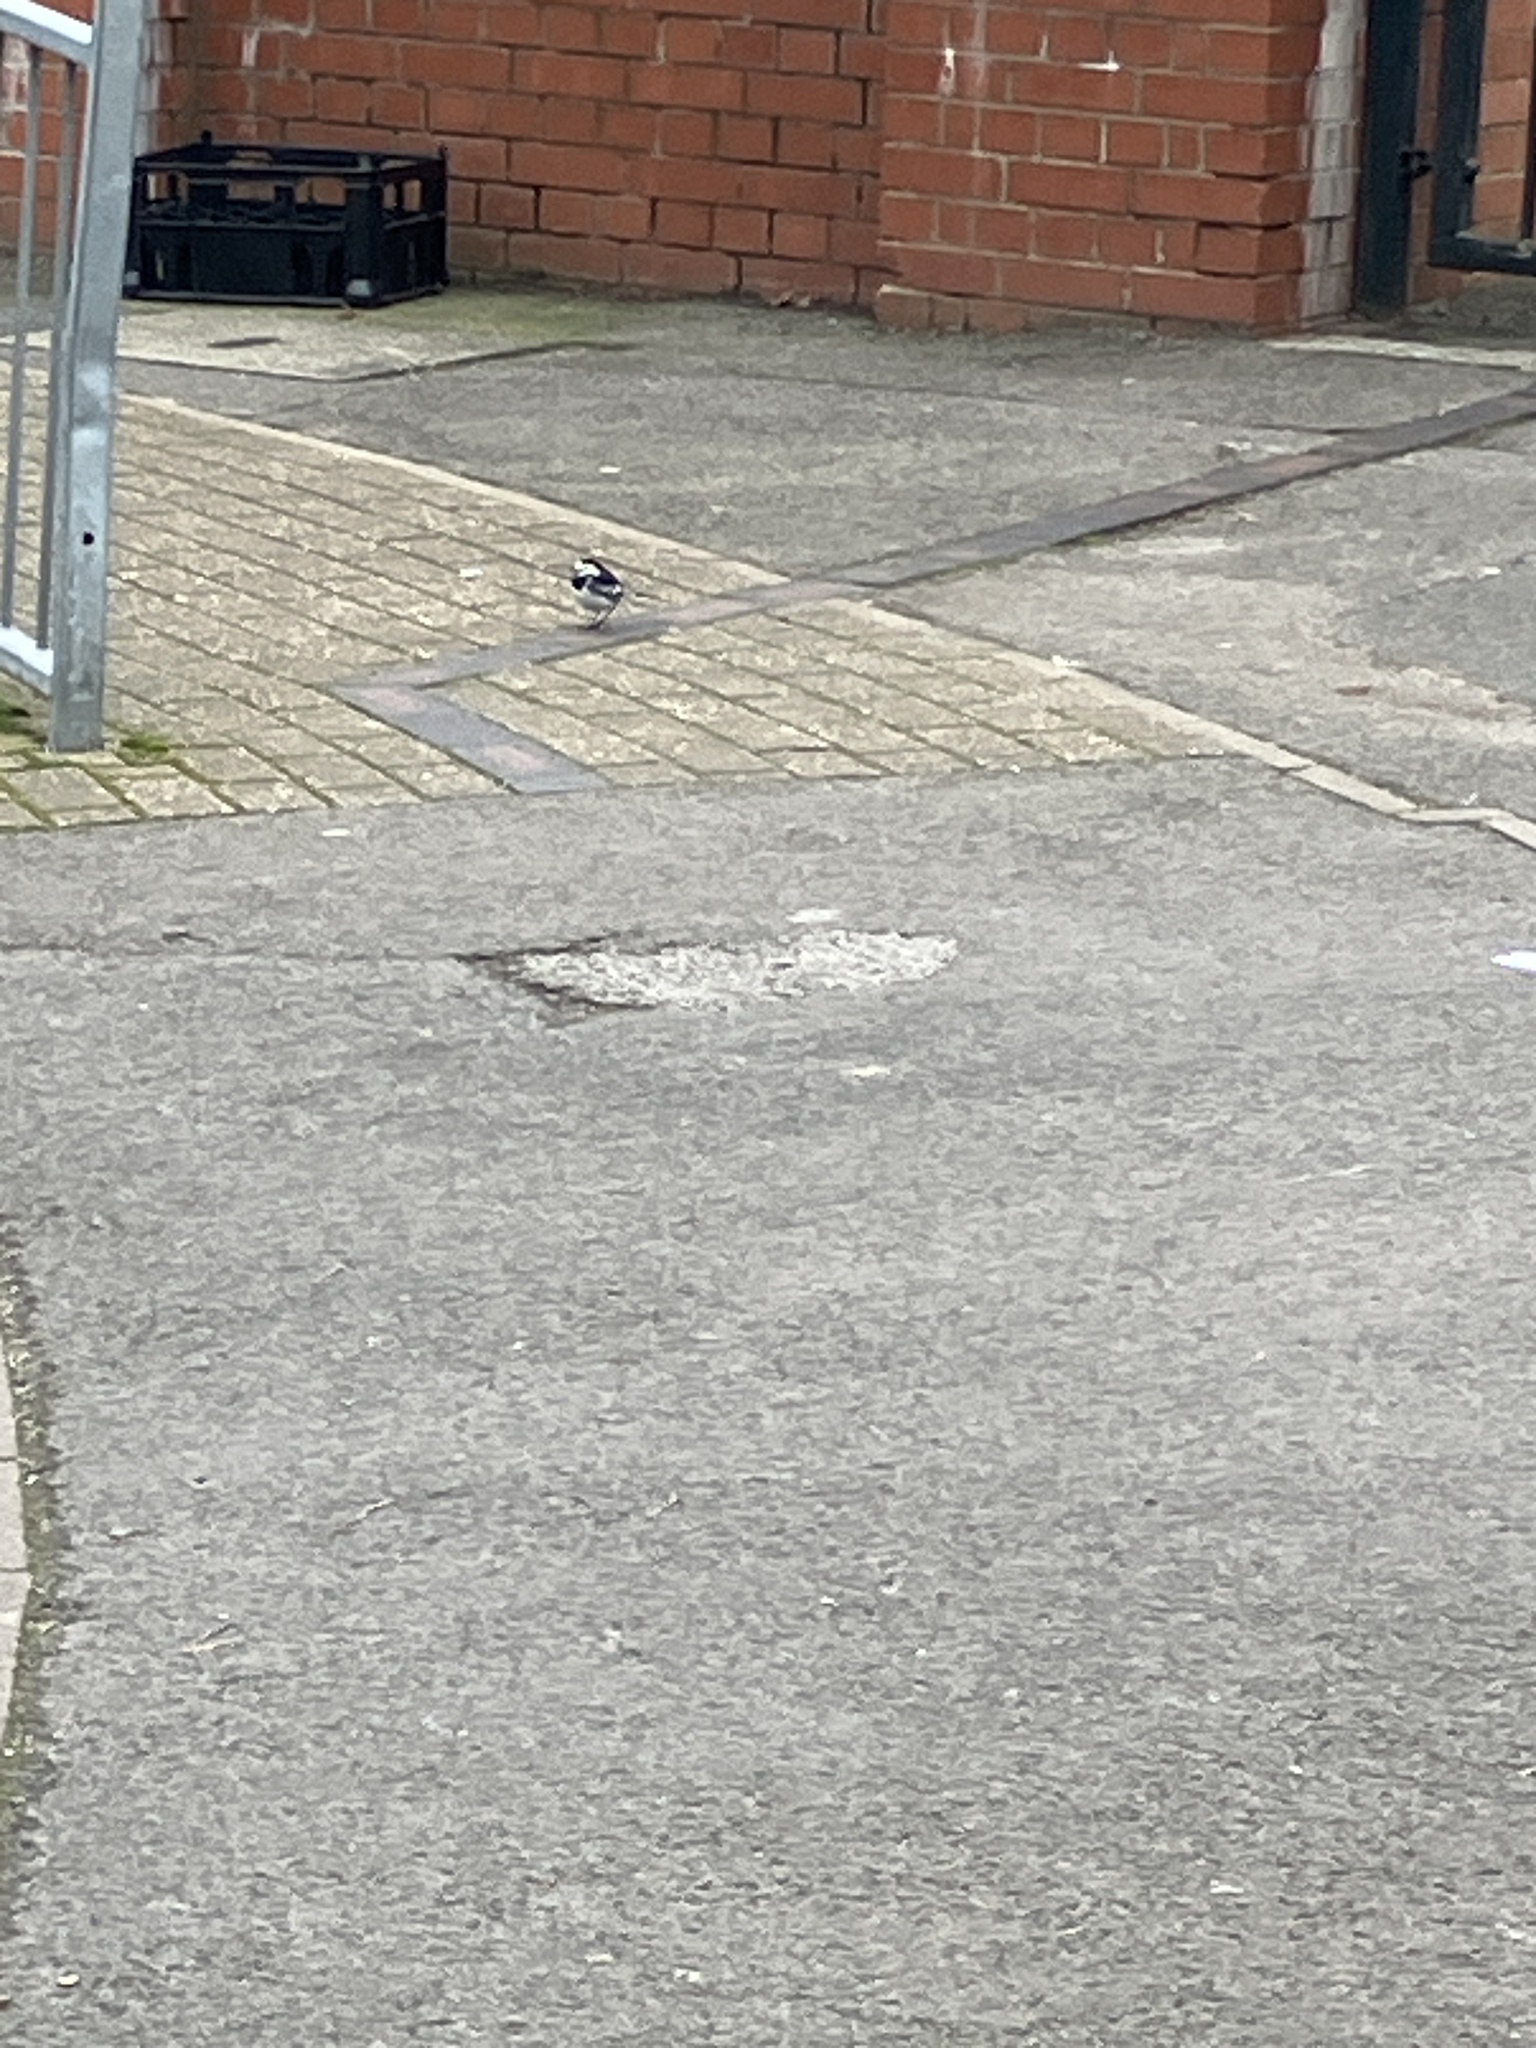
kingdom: Animalia
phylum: Chordata
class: Aves
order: Passeriformes
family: Motacillidae
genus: Motacilla
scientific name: Motacilla alba
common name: White wagtail
